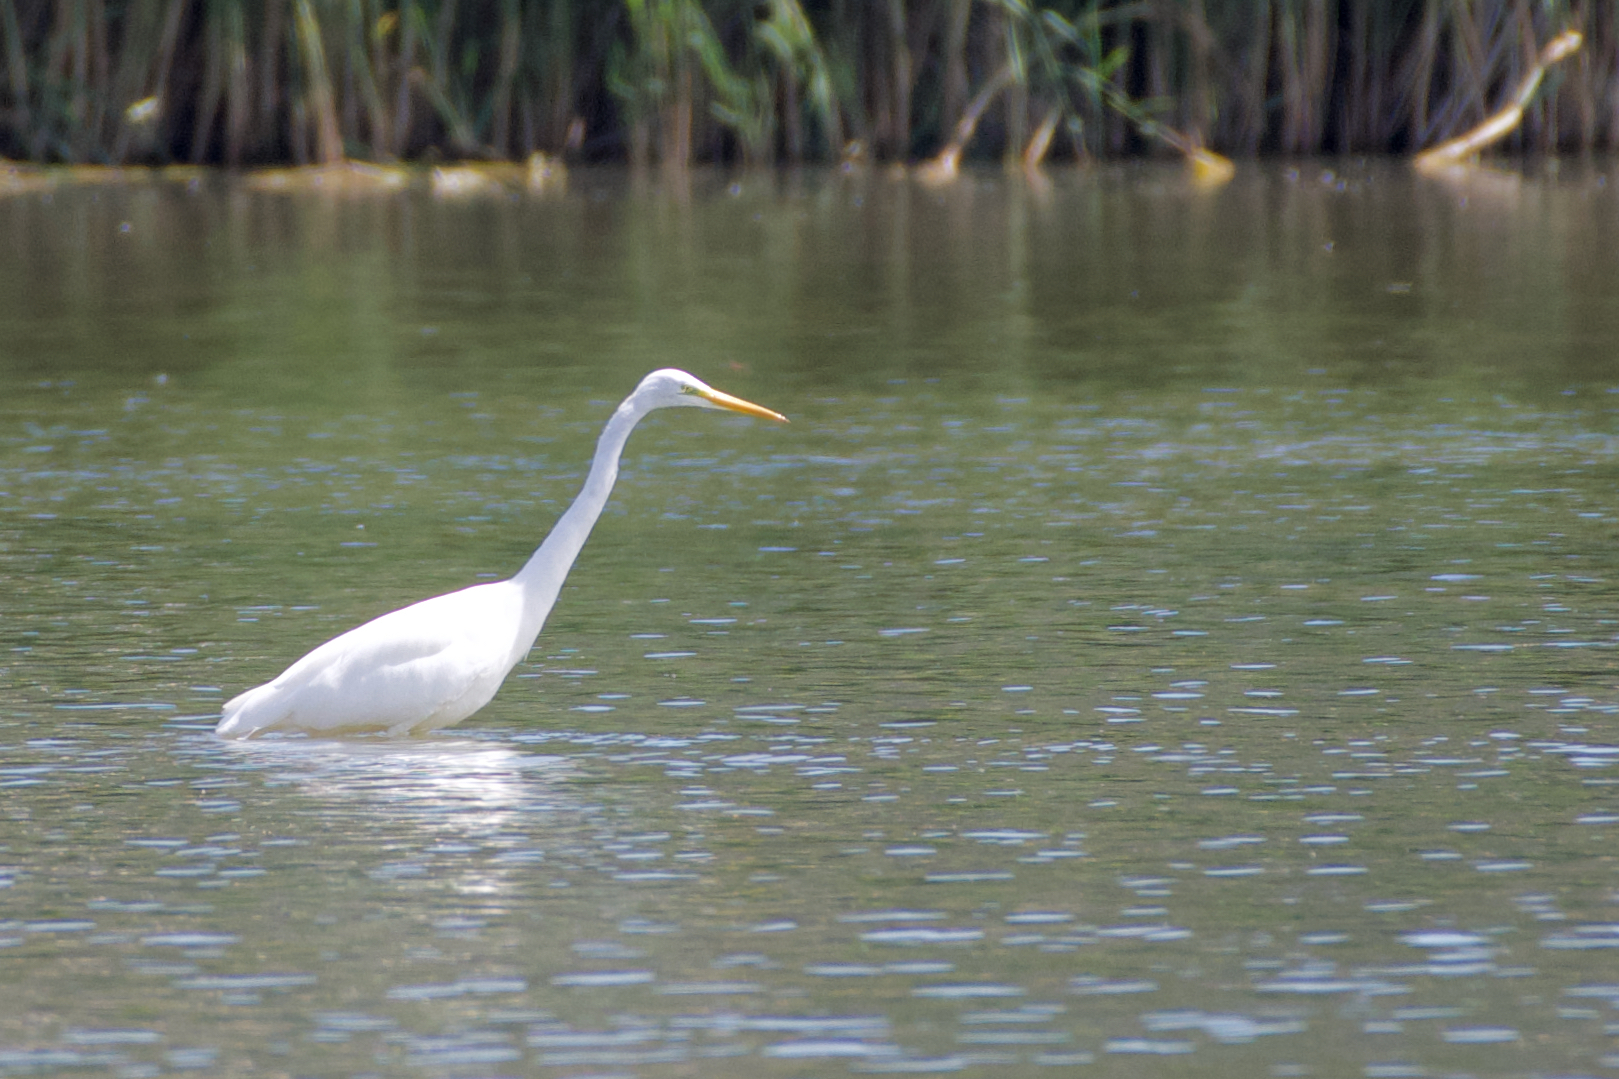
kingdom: Animalia
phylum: Chordata
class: Aves
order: Pelecaniformes
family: Ardeidae
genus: Ardea
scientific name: Ardea alba
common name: Great egret
